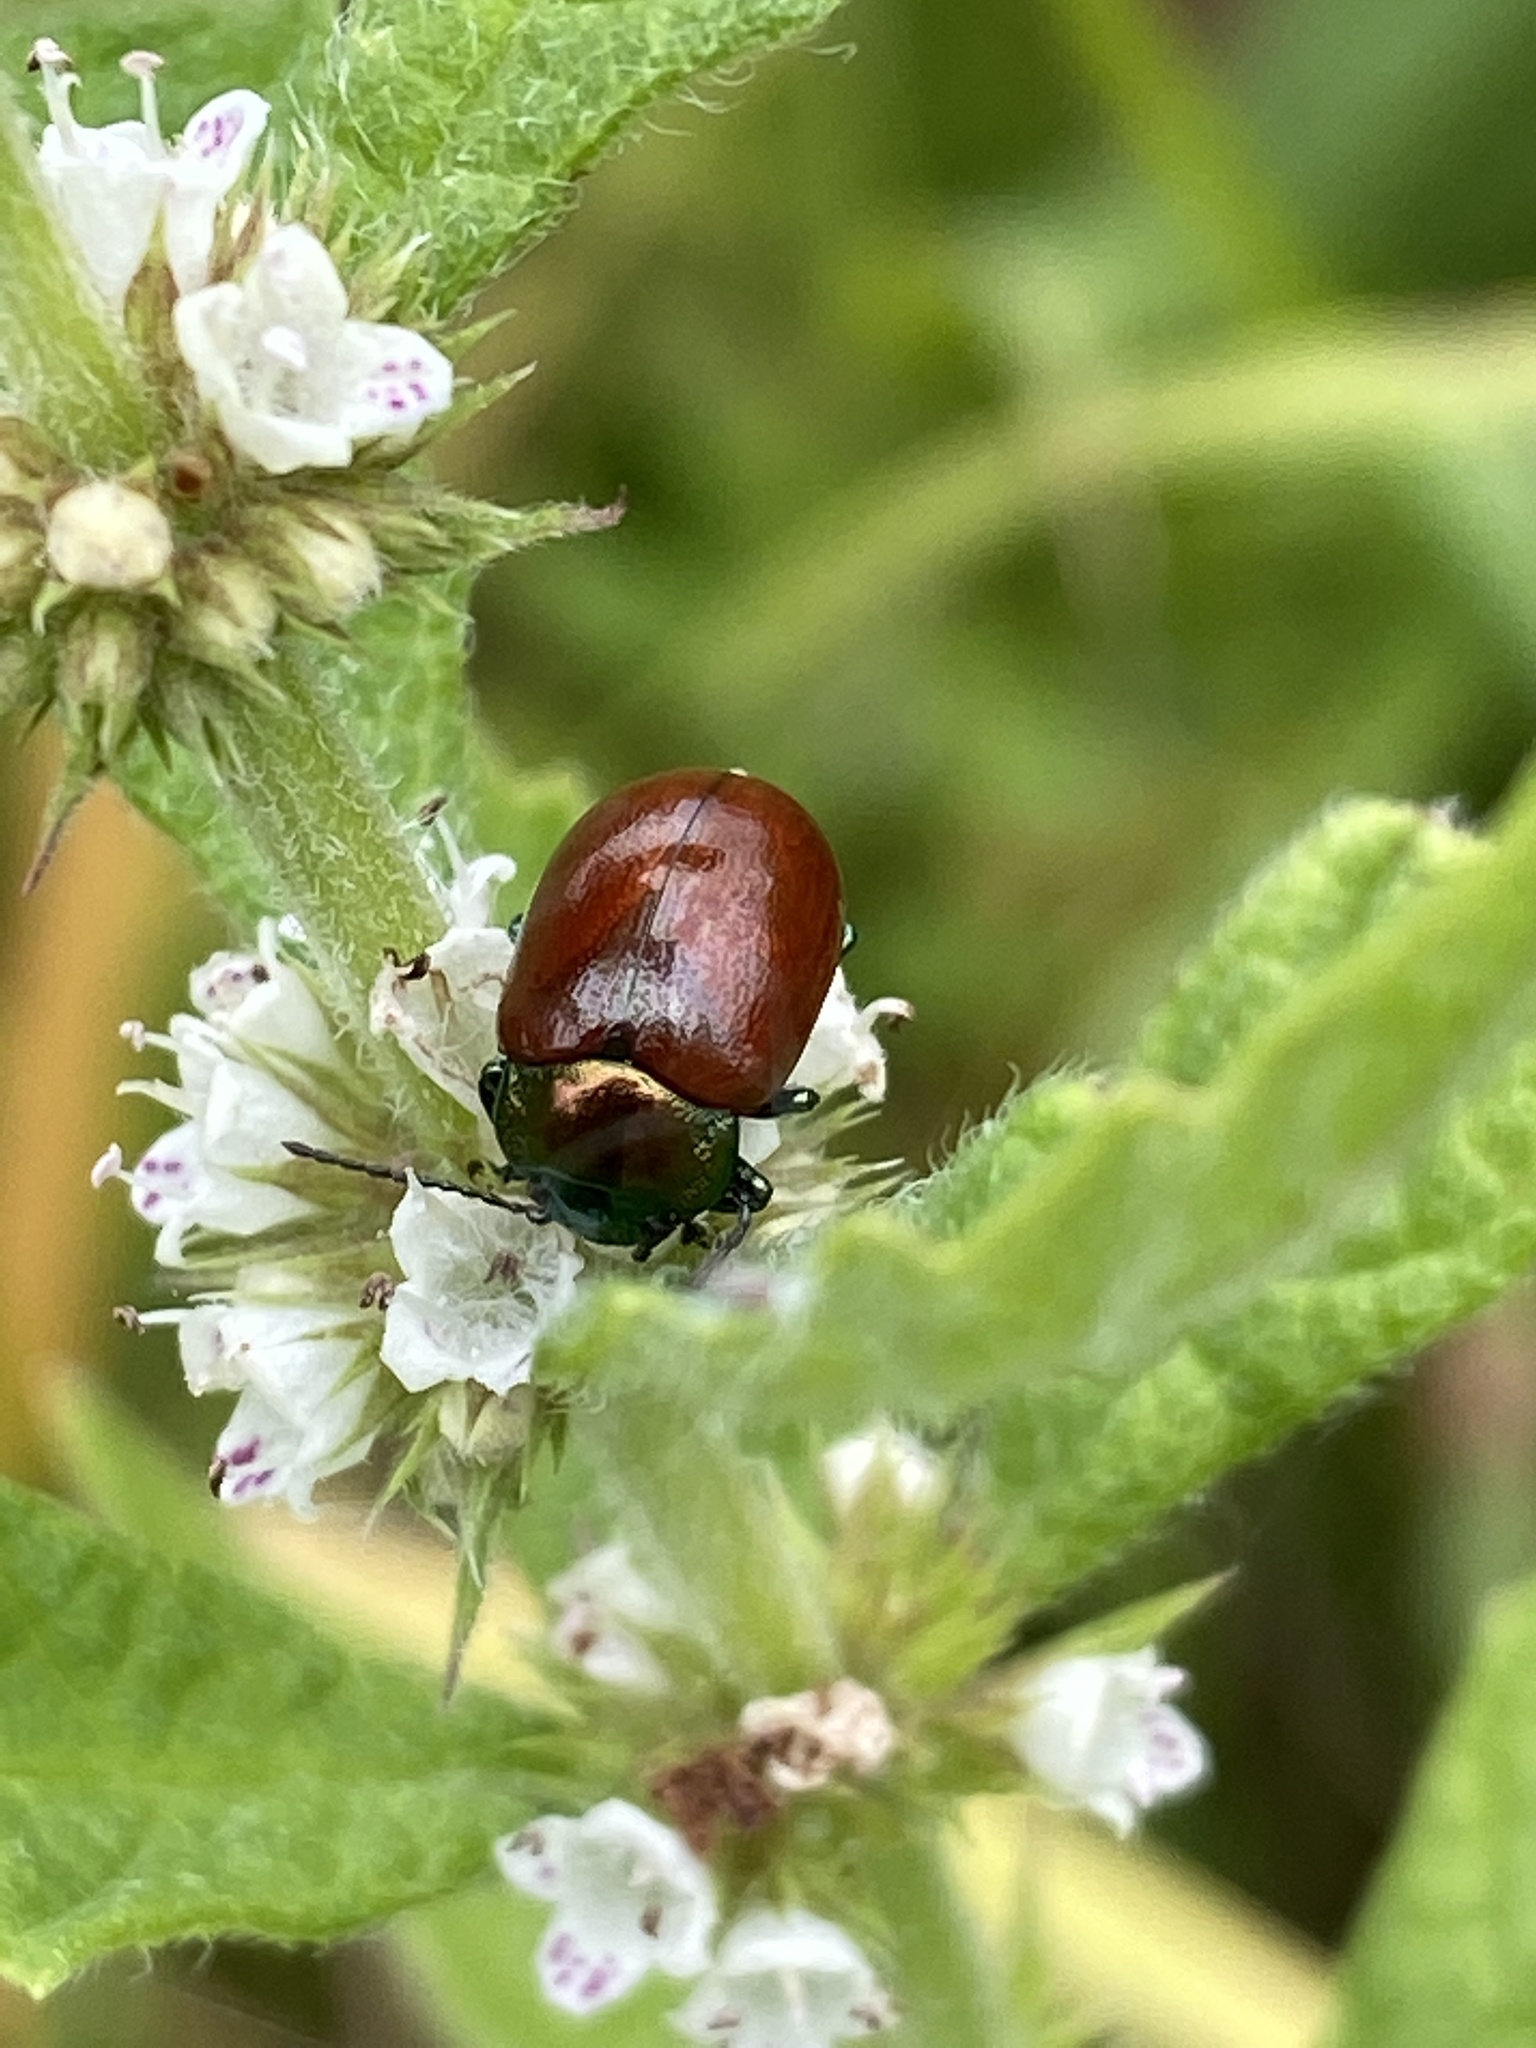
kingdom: Animalia
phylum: Arthropoda
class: Insecta
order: Coleoptera
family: Chrysomelidae
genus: Chrysomela
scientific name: Chrysomela polita
